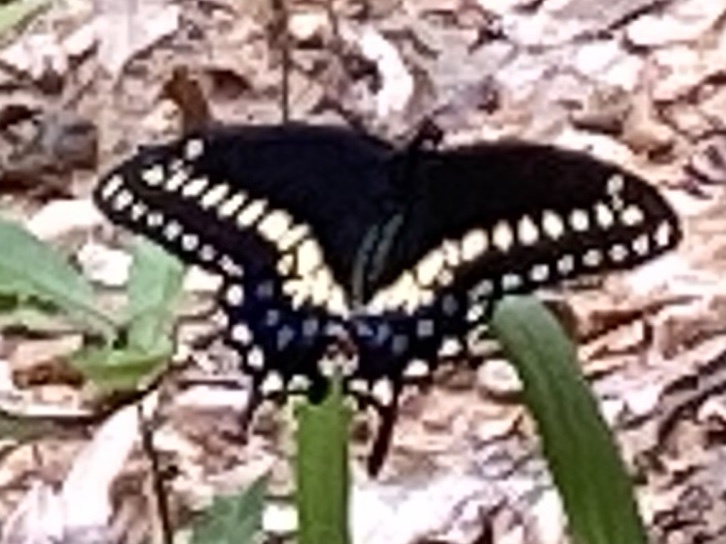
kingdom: Animalia
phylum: Arthropoda
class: Insecta
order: Lepidoptera
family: Papilionidae
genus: Papilio
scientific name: Papilio polyxenes
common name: Black swallowtail
